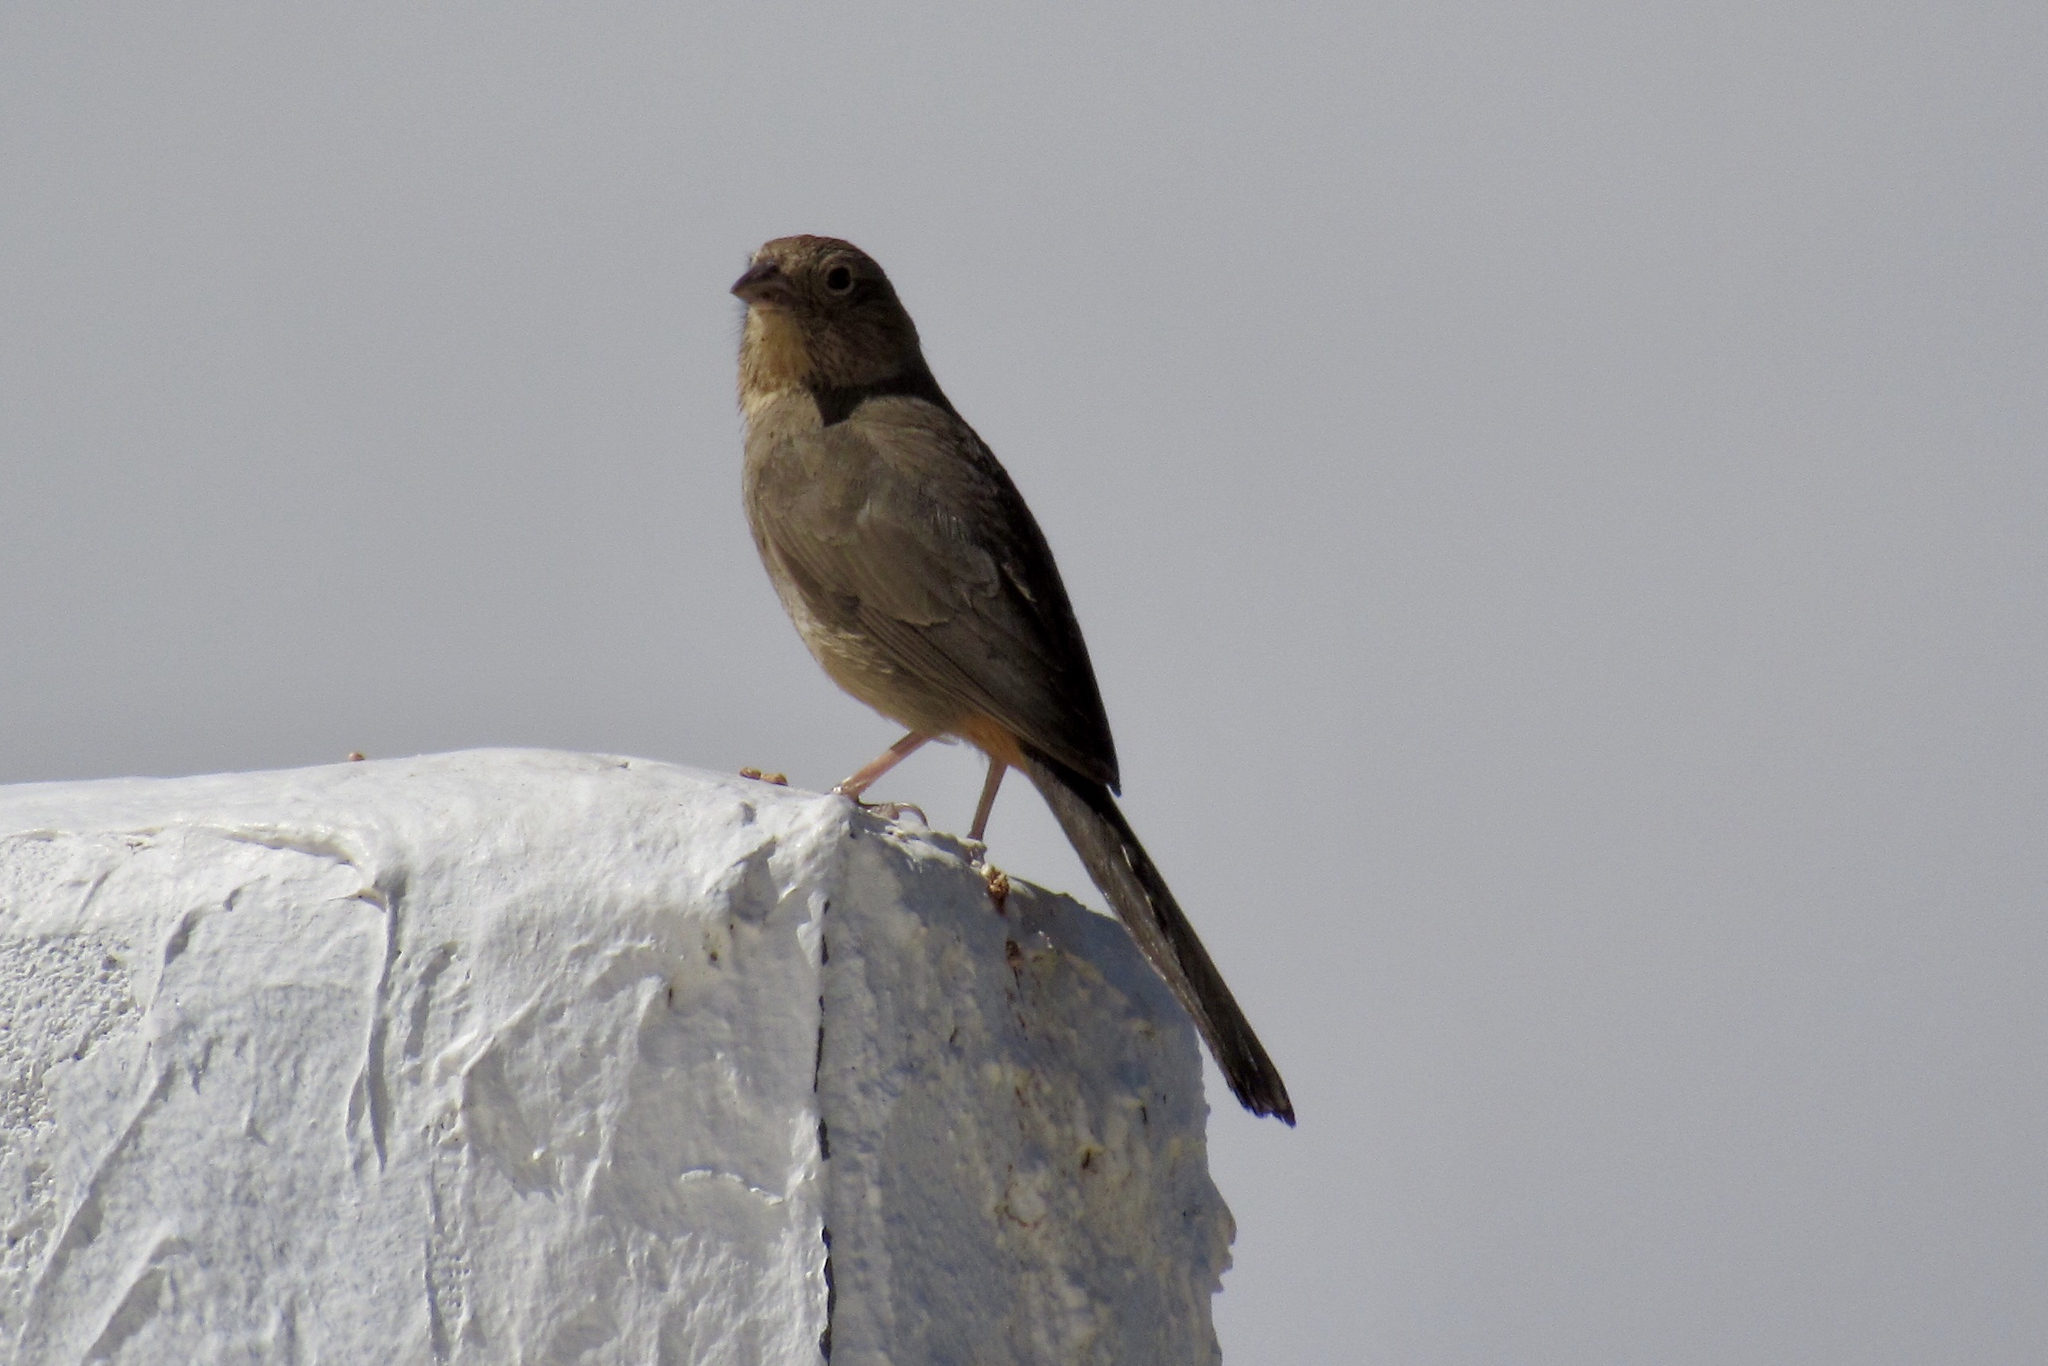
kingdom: Animalia
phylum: Chordata
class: Aves
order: Passeriformes
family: Passerellidae
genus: Melozone
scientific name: Melozone fusca
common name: Canyon towhee
